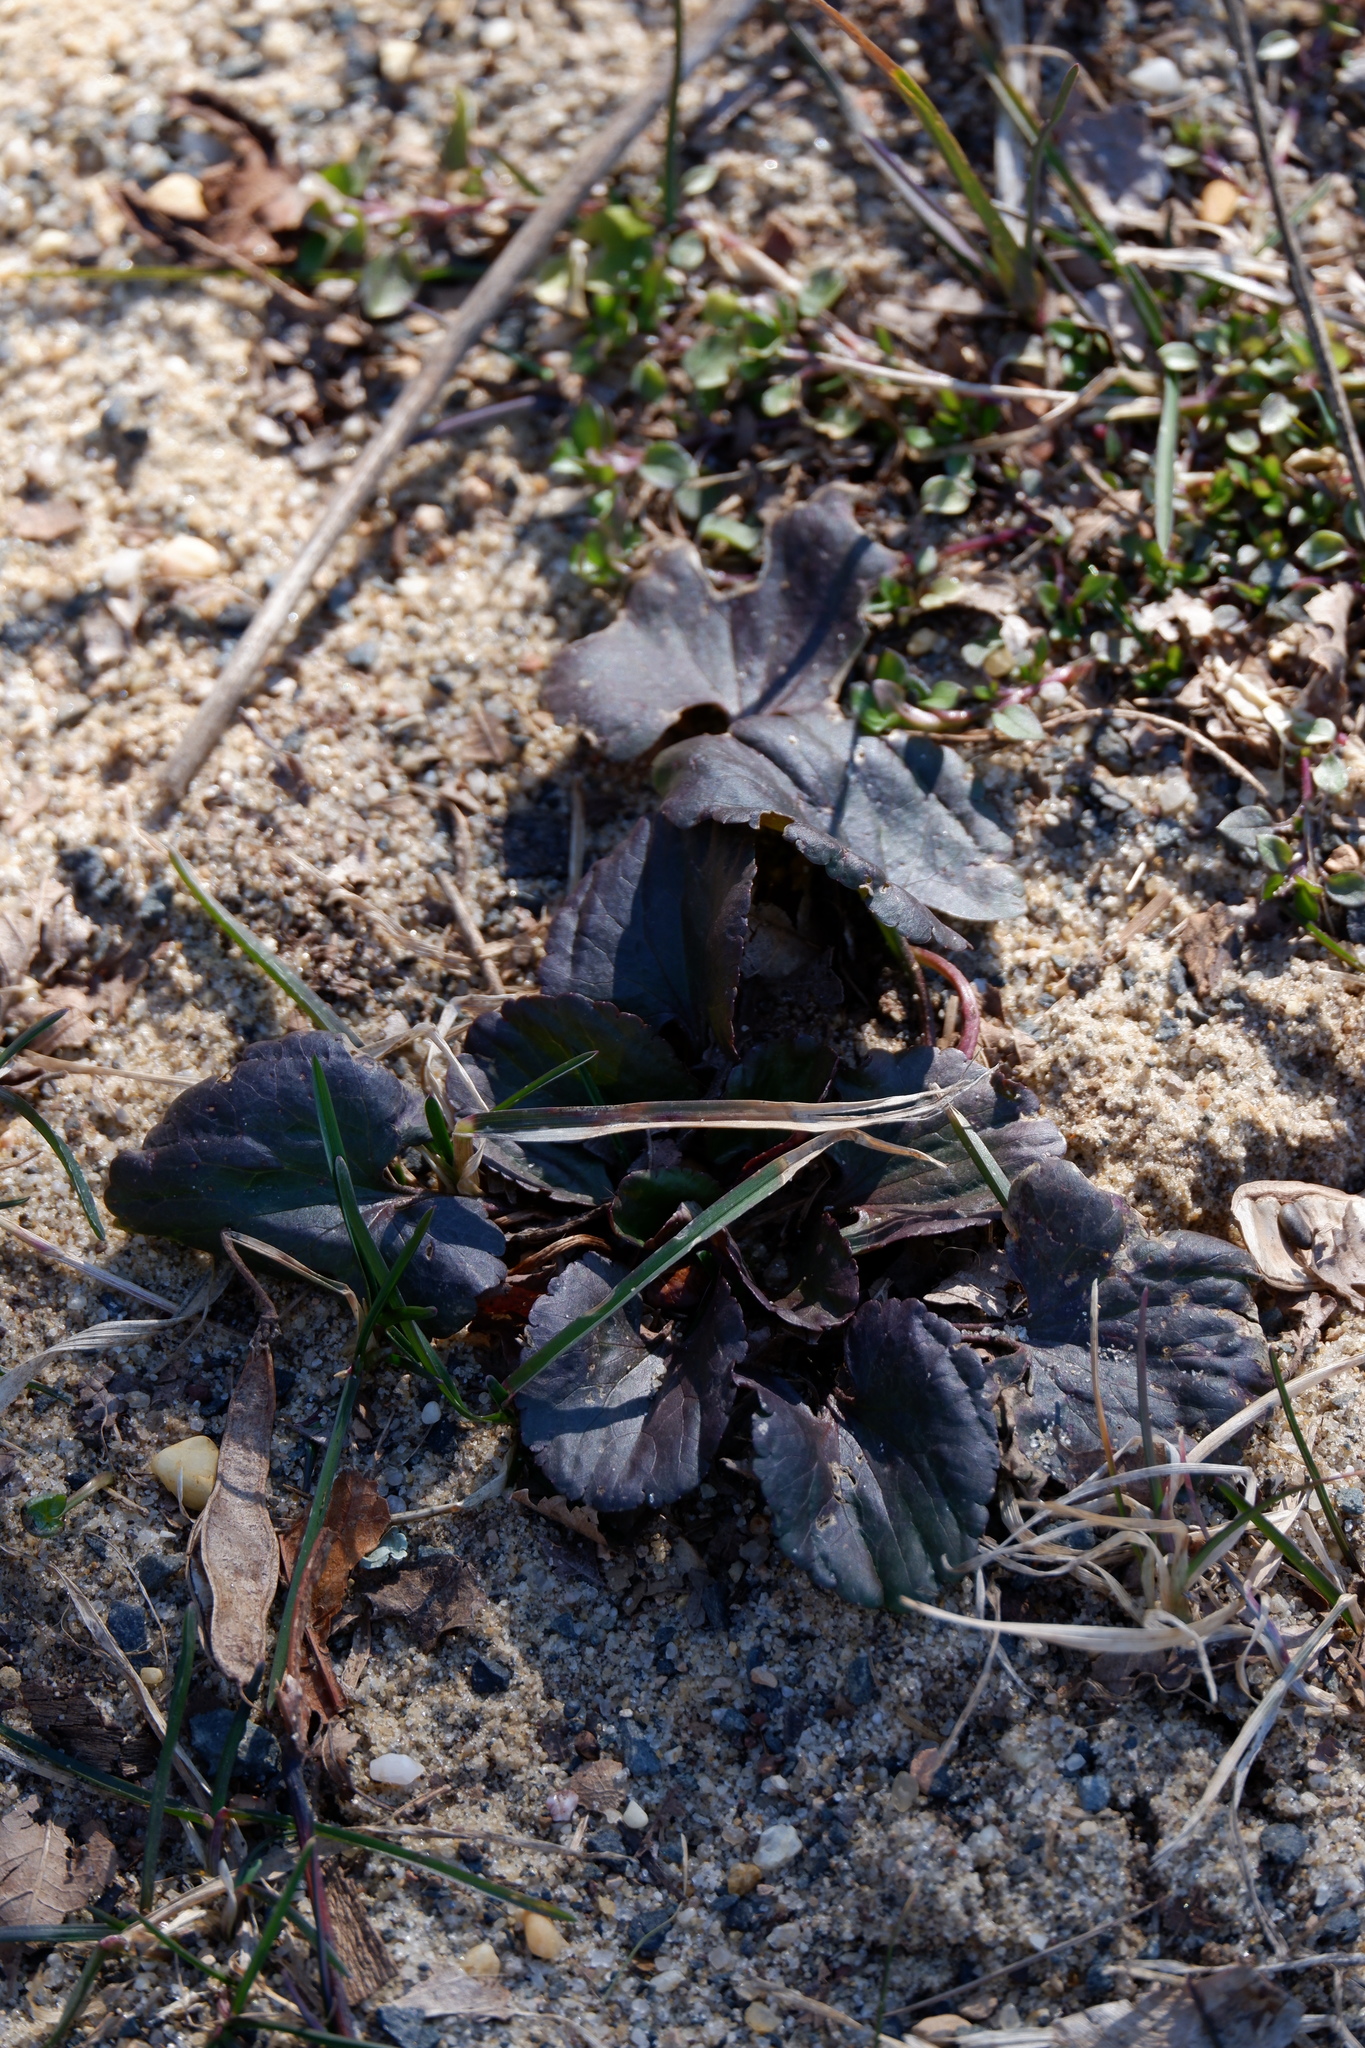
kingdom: Plantae
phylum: Tracheophyta
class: Magnoliopsida
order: Ranunculales
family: Ranunculaceae
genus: Ranunculus
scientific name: Ranunculus abortivus
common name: Early wood buttercup
